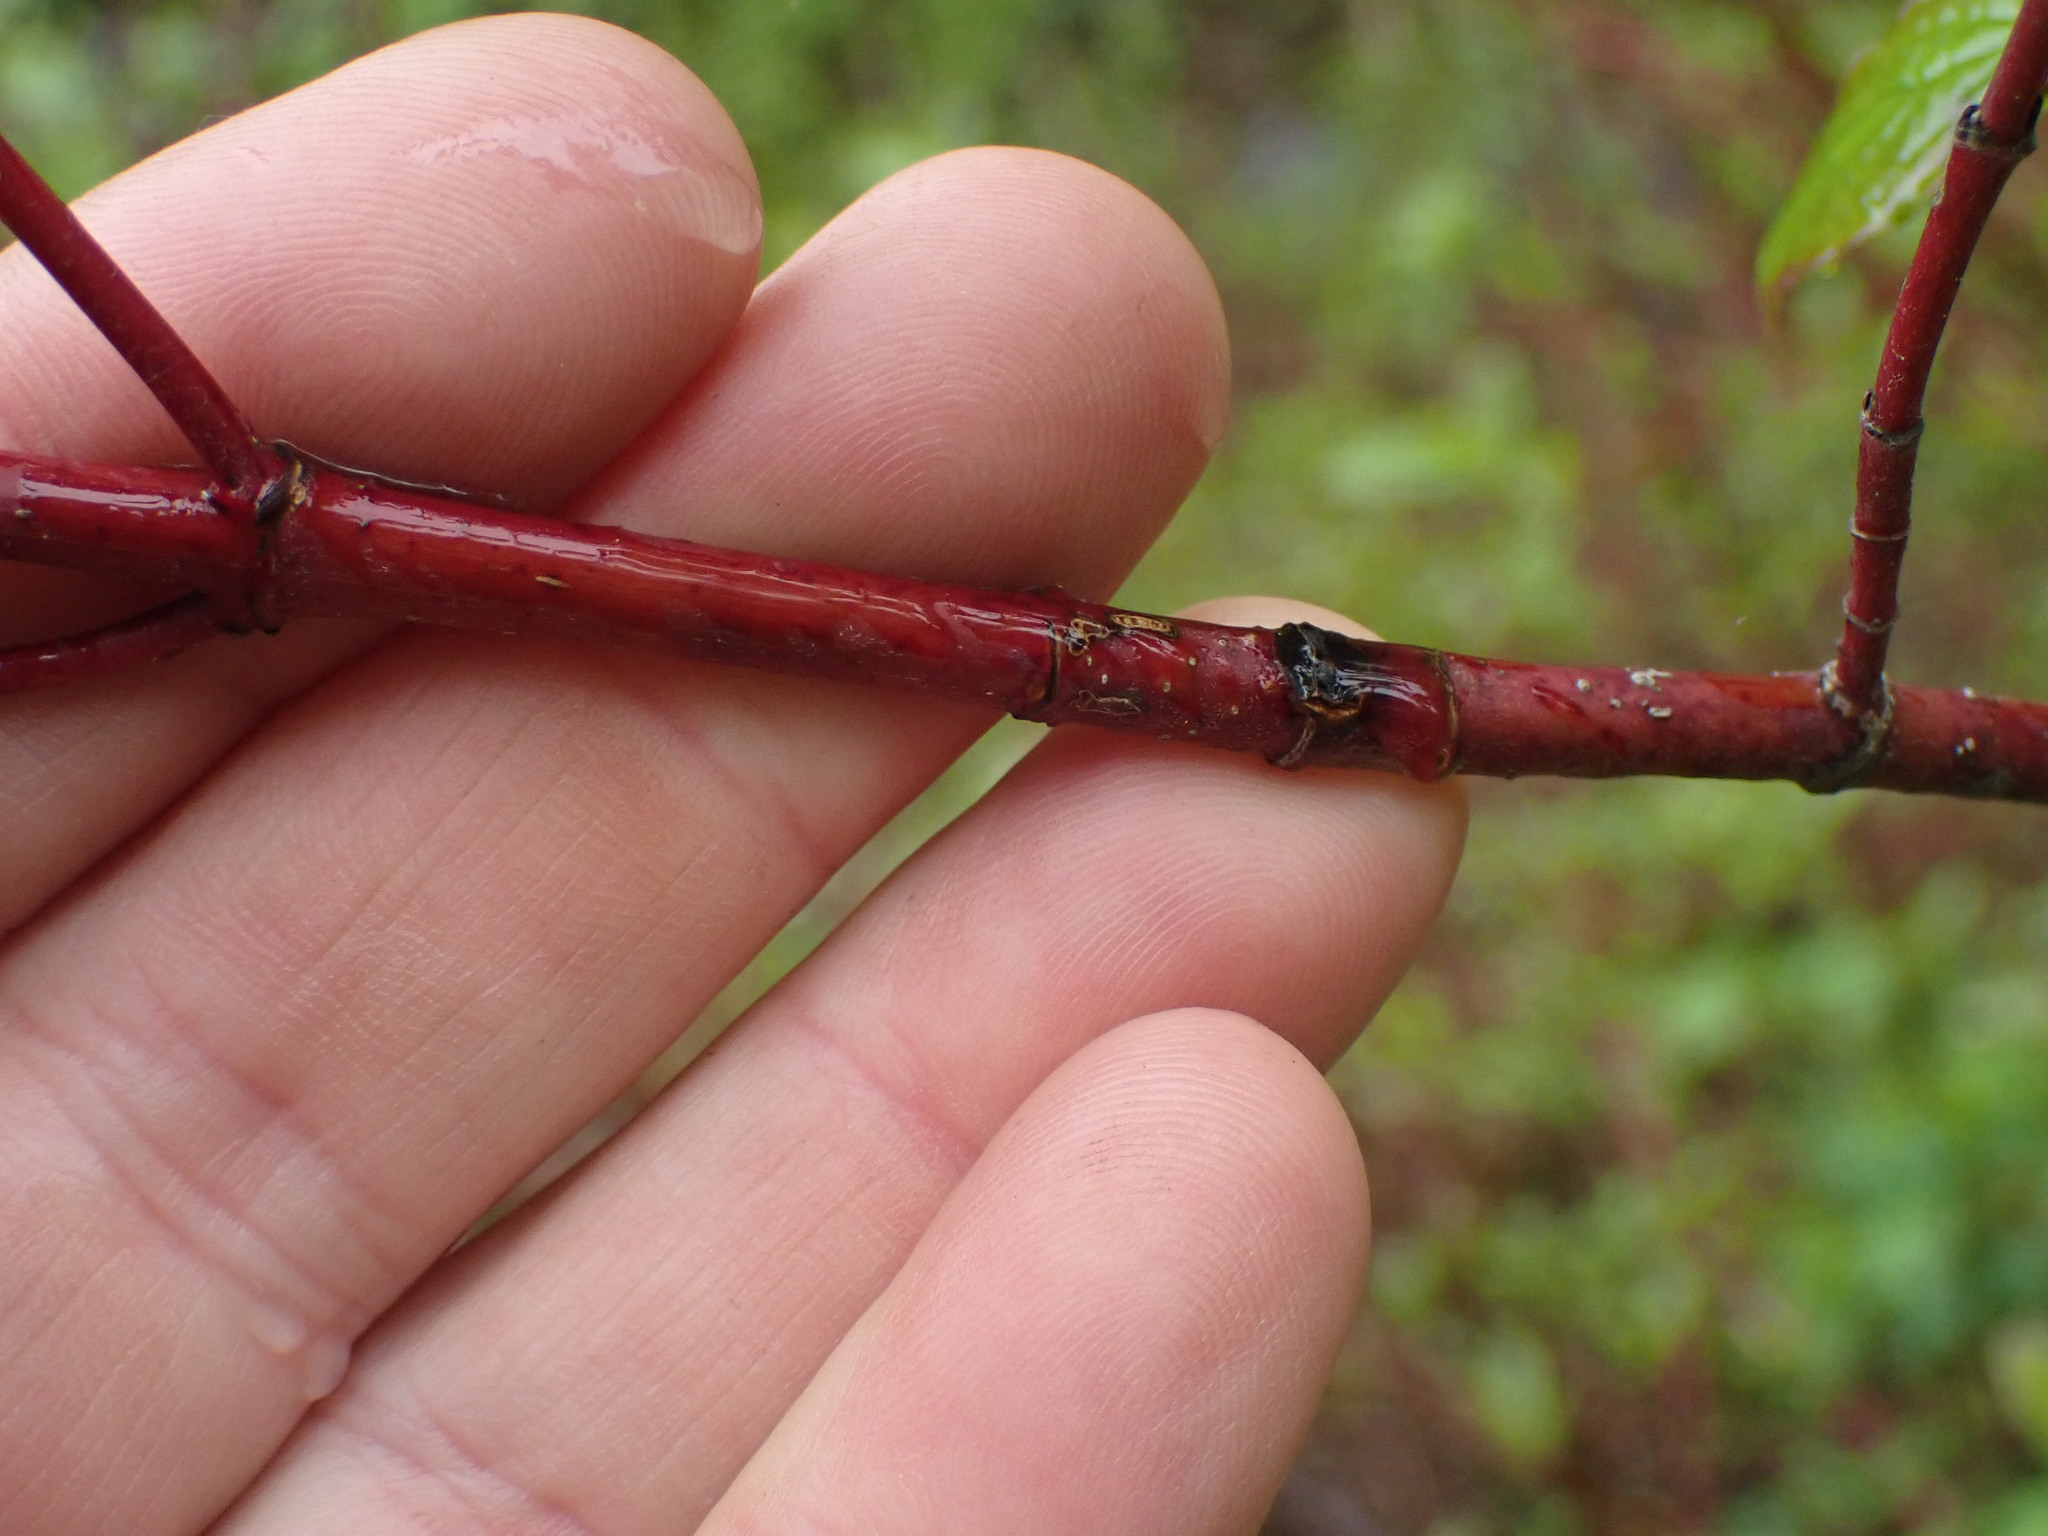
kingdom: Plantae
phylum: Tracheophyta
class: Magnoliopsida
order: Cornales
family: Cornaceae
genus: Cornus
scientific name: Cornus sericea
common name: Red-osier dogwood
